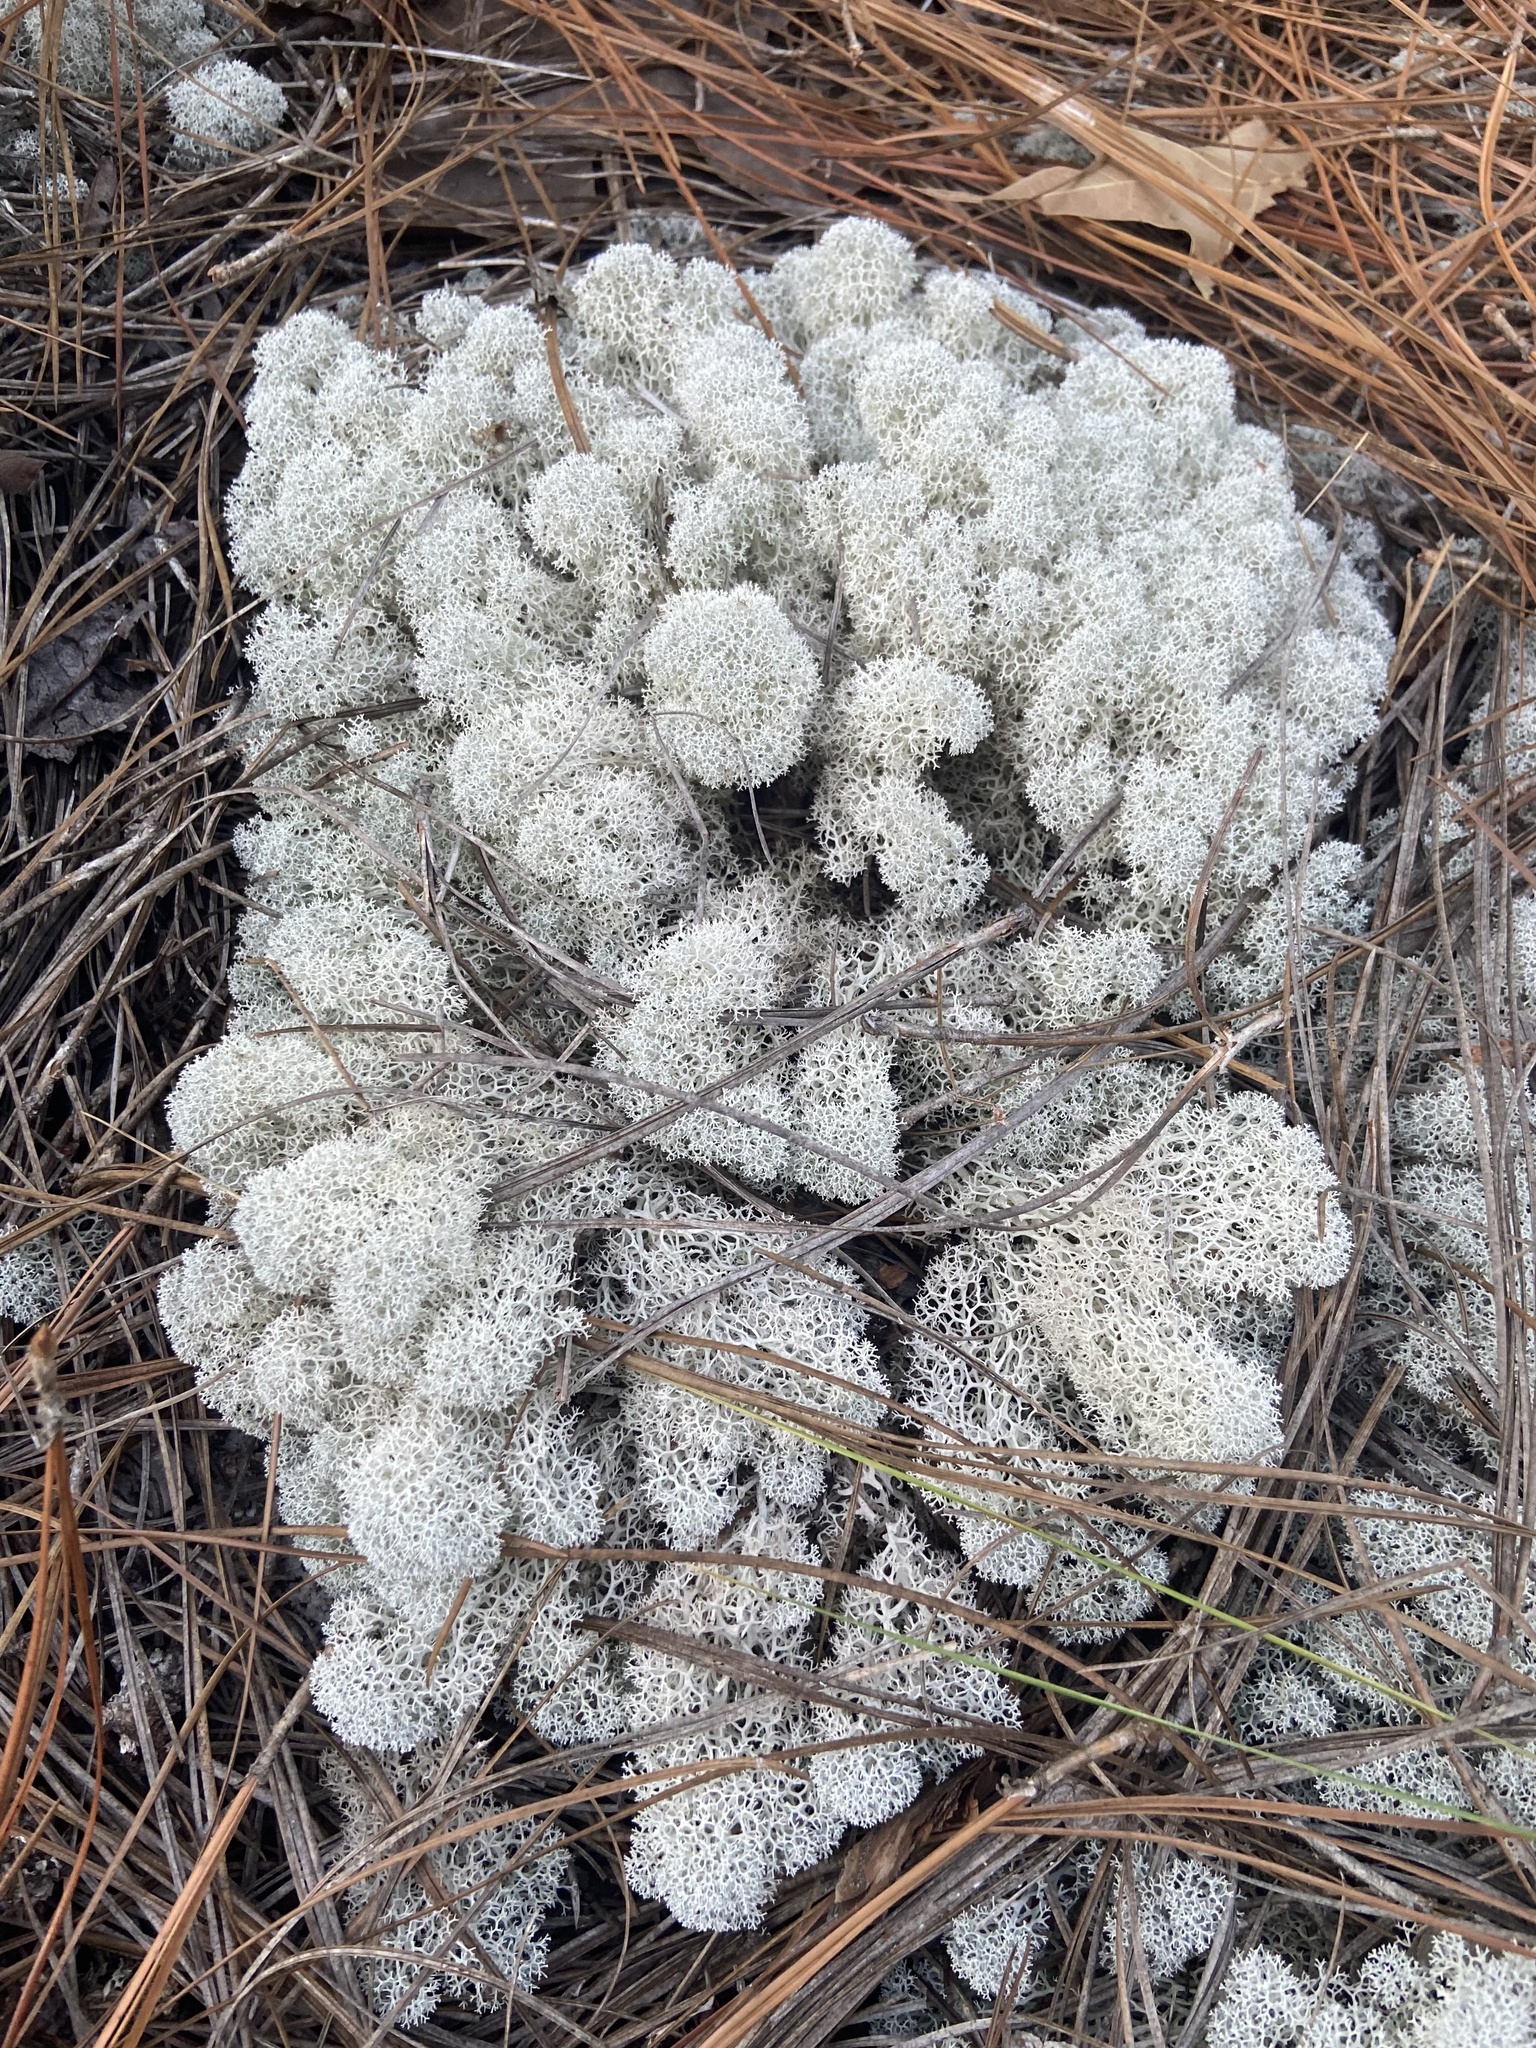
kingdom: Fungi
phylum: Ascomycota
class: Lecanoromycetes
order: Lecanorales
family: Cladoniaceae
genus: Cladonia
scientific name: Cladonia evansii
